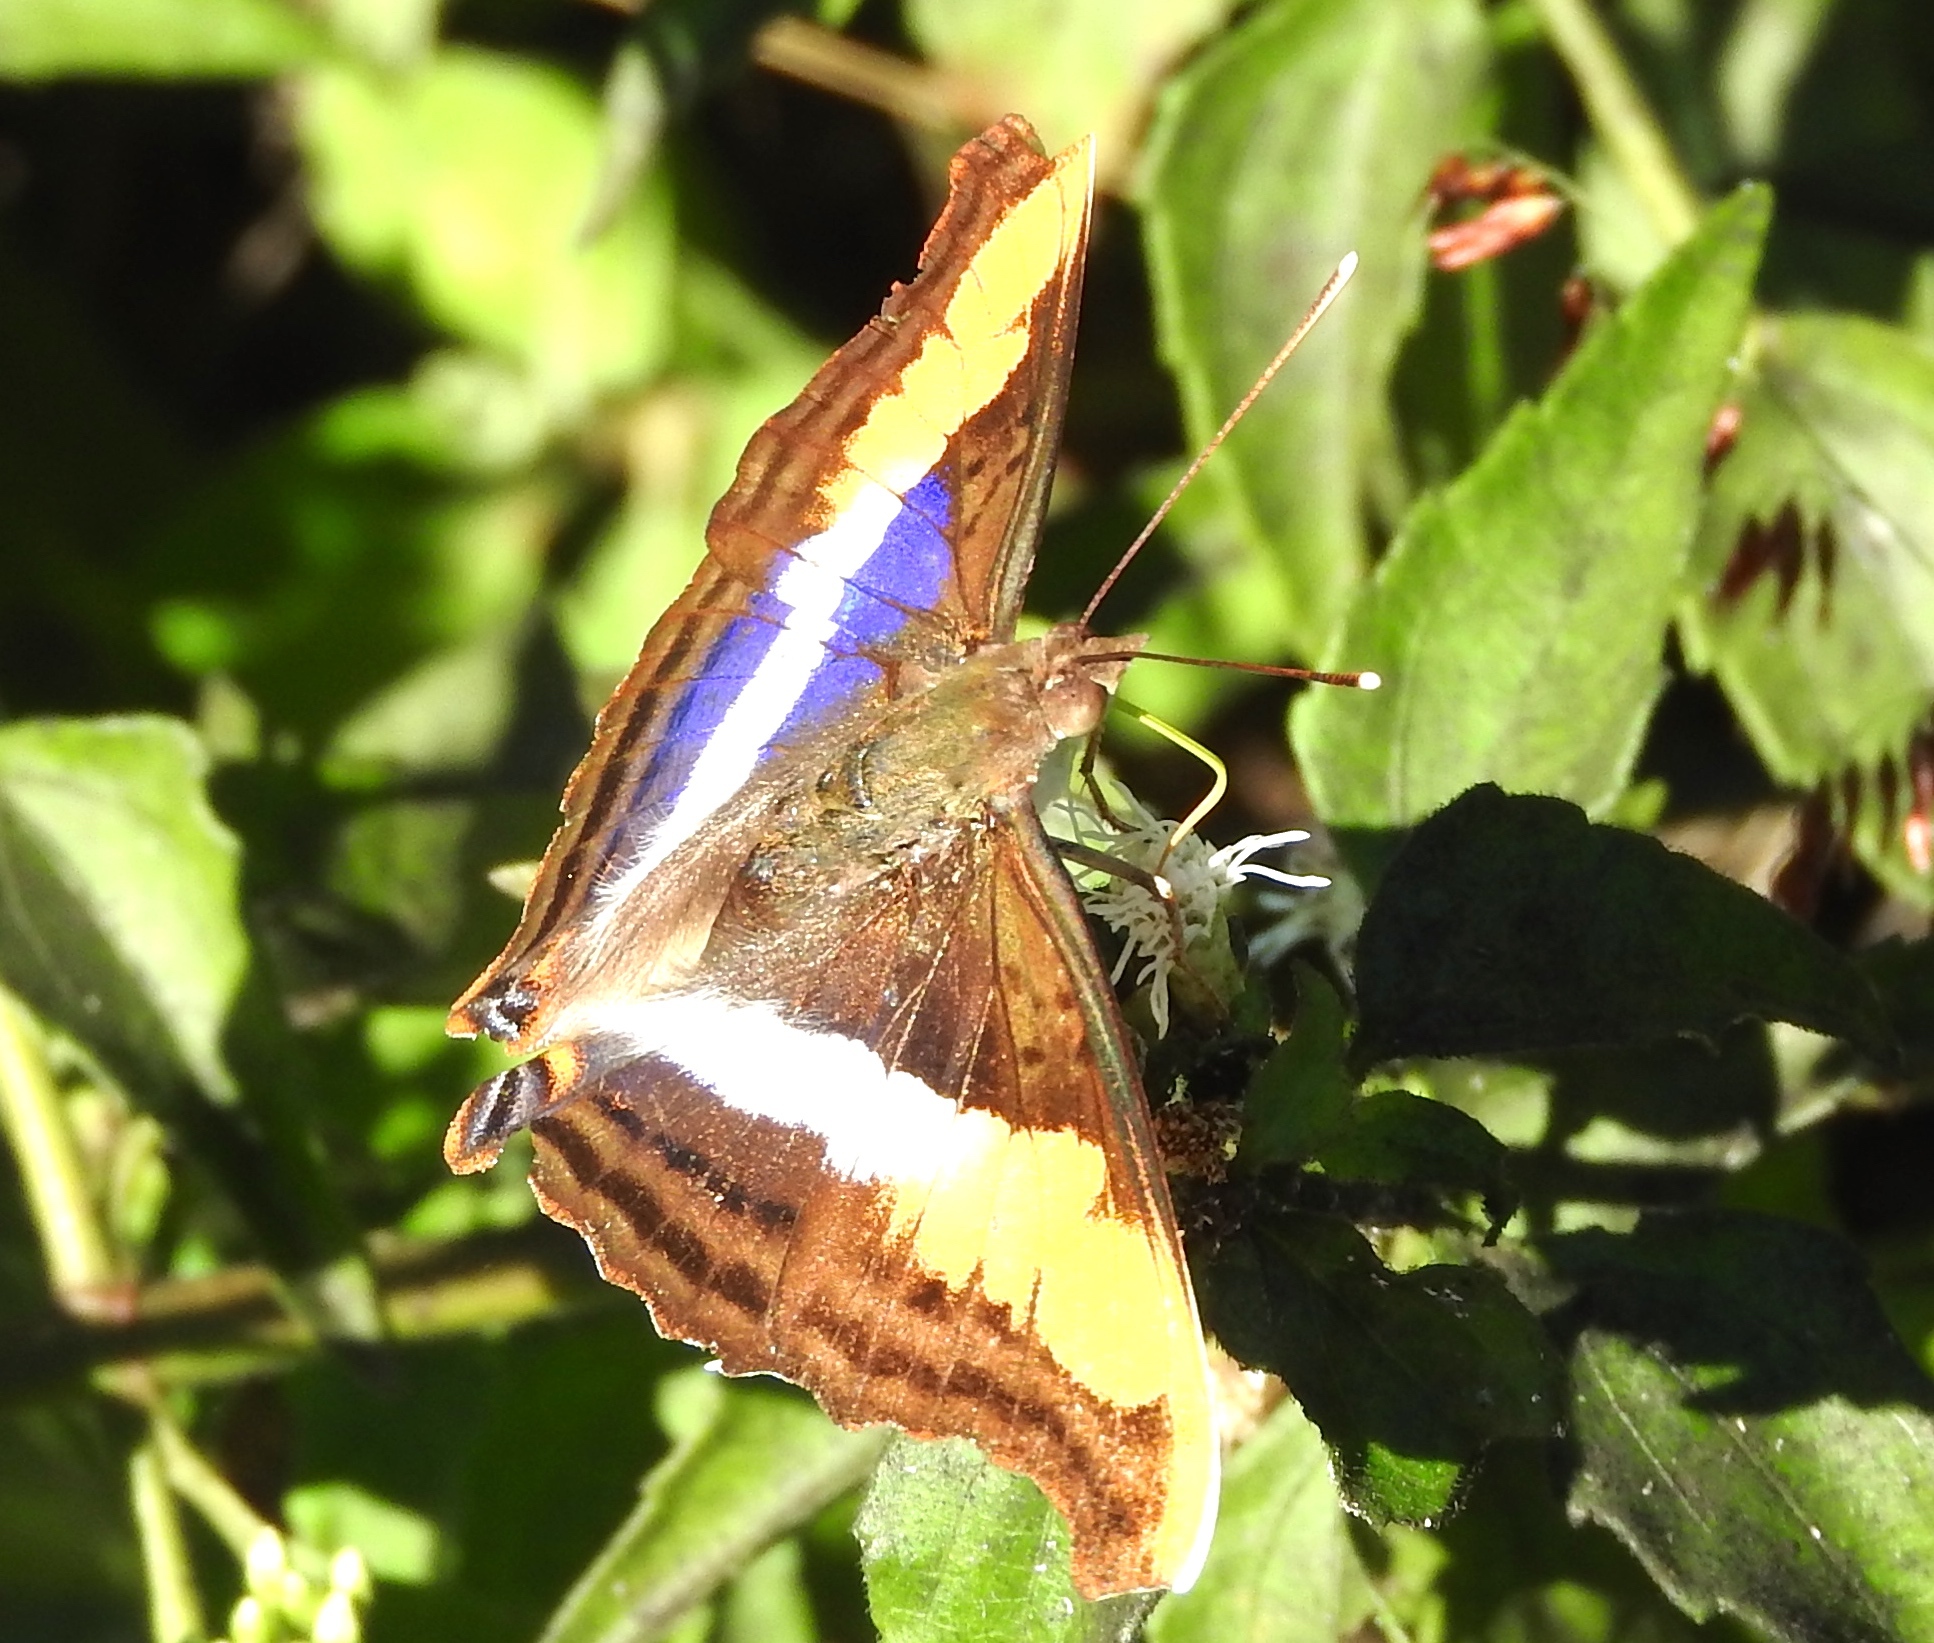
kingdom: Animalia
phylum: Arthropoda
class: Insecta
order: Lepidoptera
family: Nymphalidae
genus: Doxocopa
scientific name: Doxocopa laure
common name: Silver emperor
